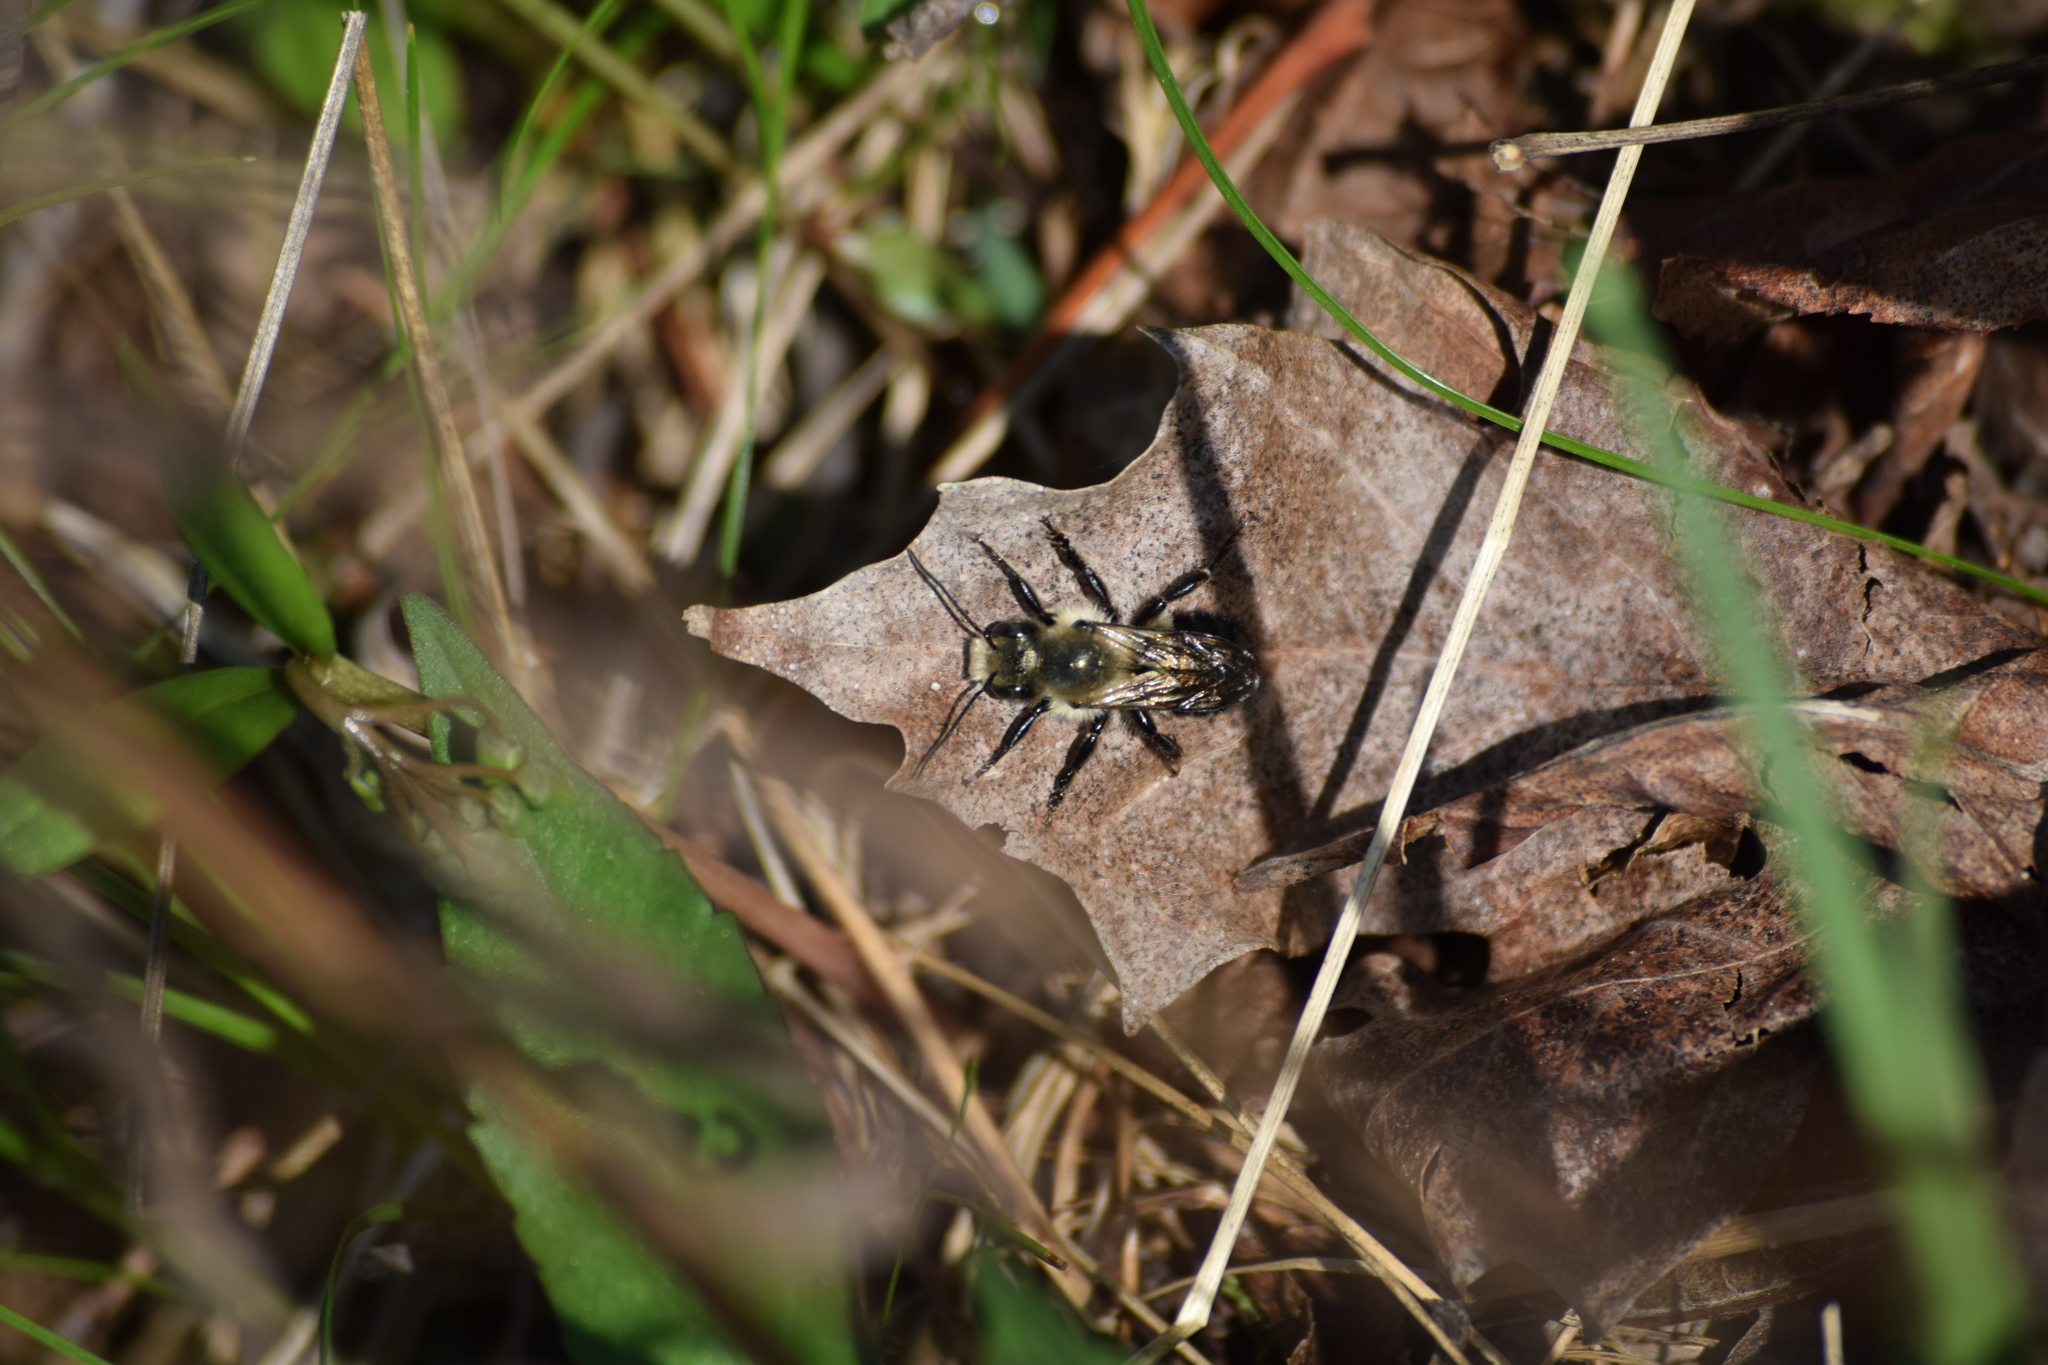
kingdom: Animalia
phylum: Arthropoda
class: Insecta
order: Hymenoptera
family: Megachilidae
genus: Osmia
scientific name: Osmia bucephala
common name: Bufflehead mason bee
